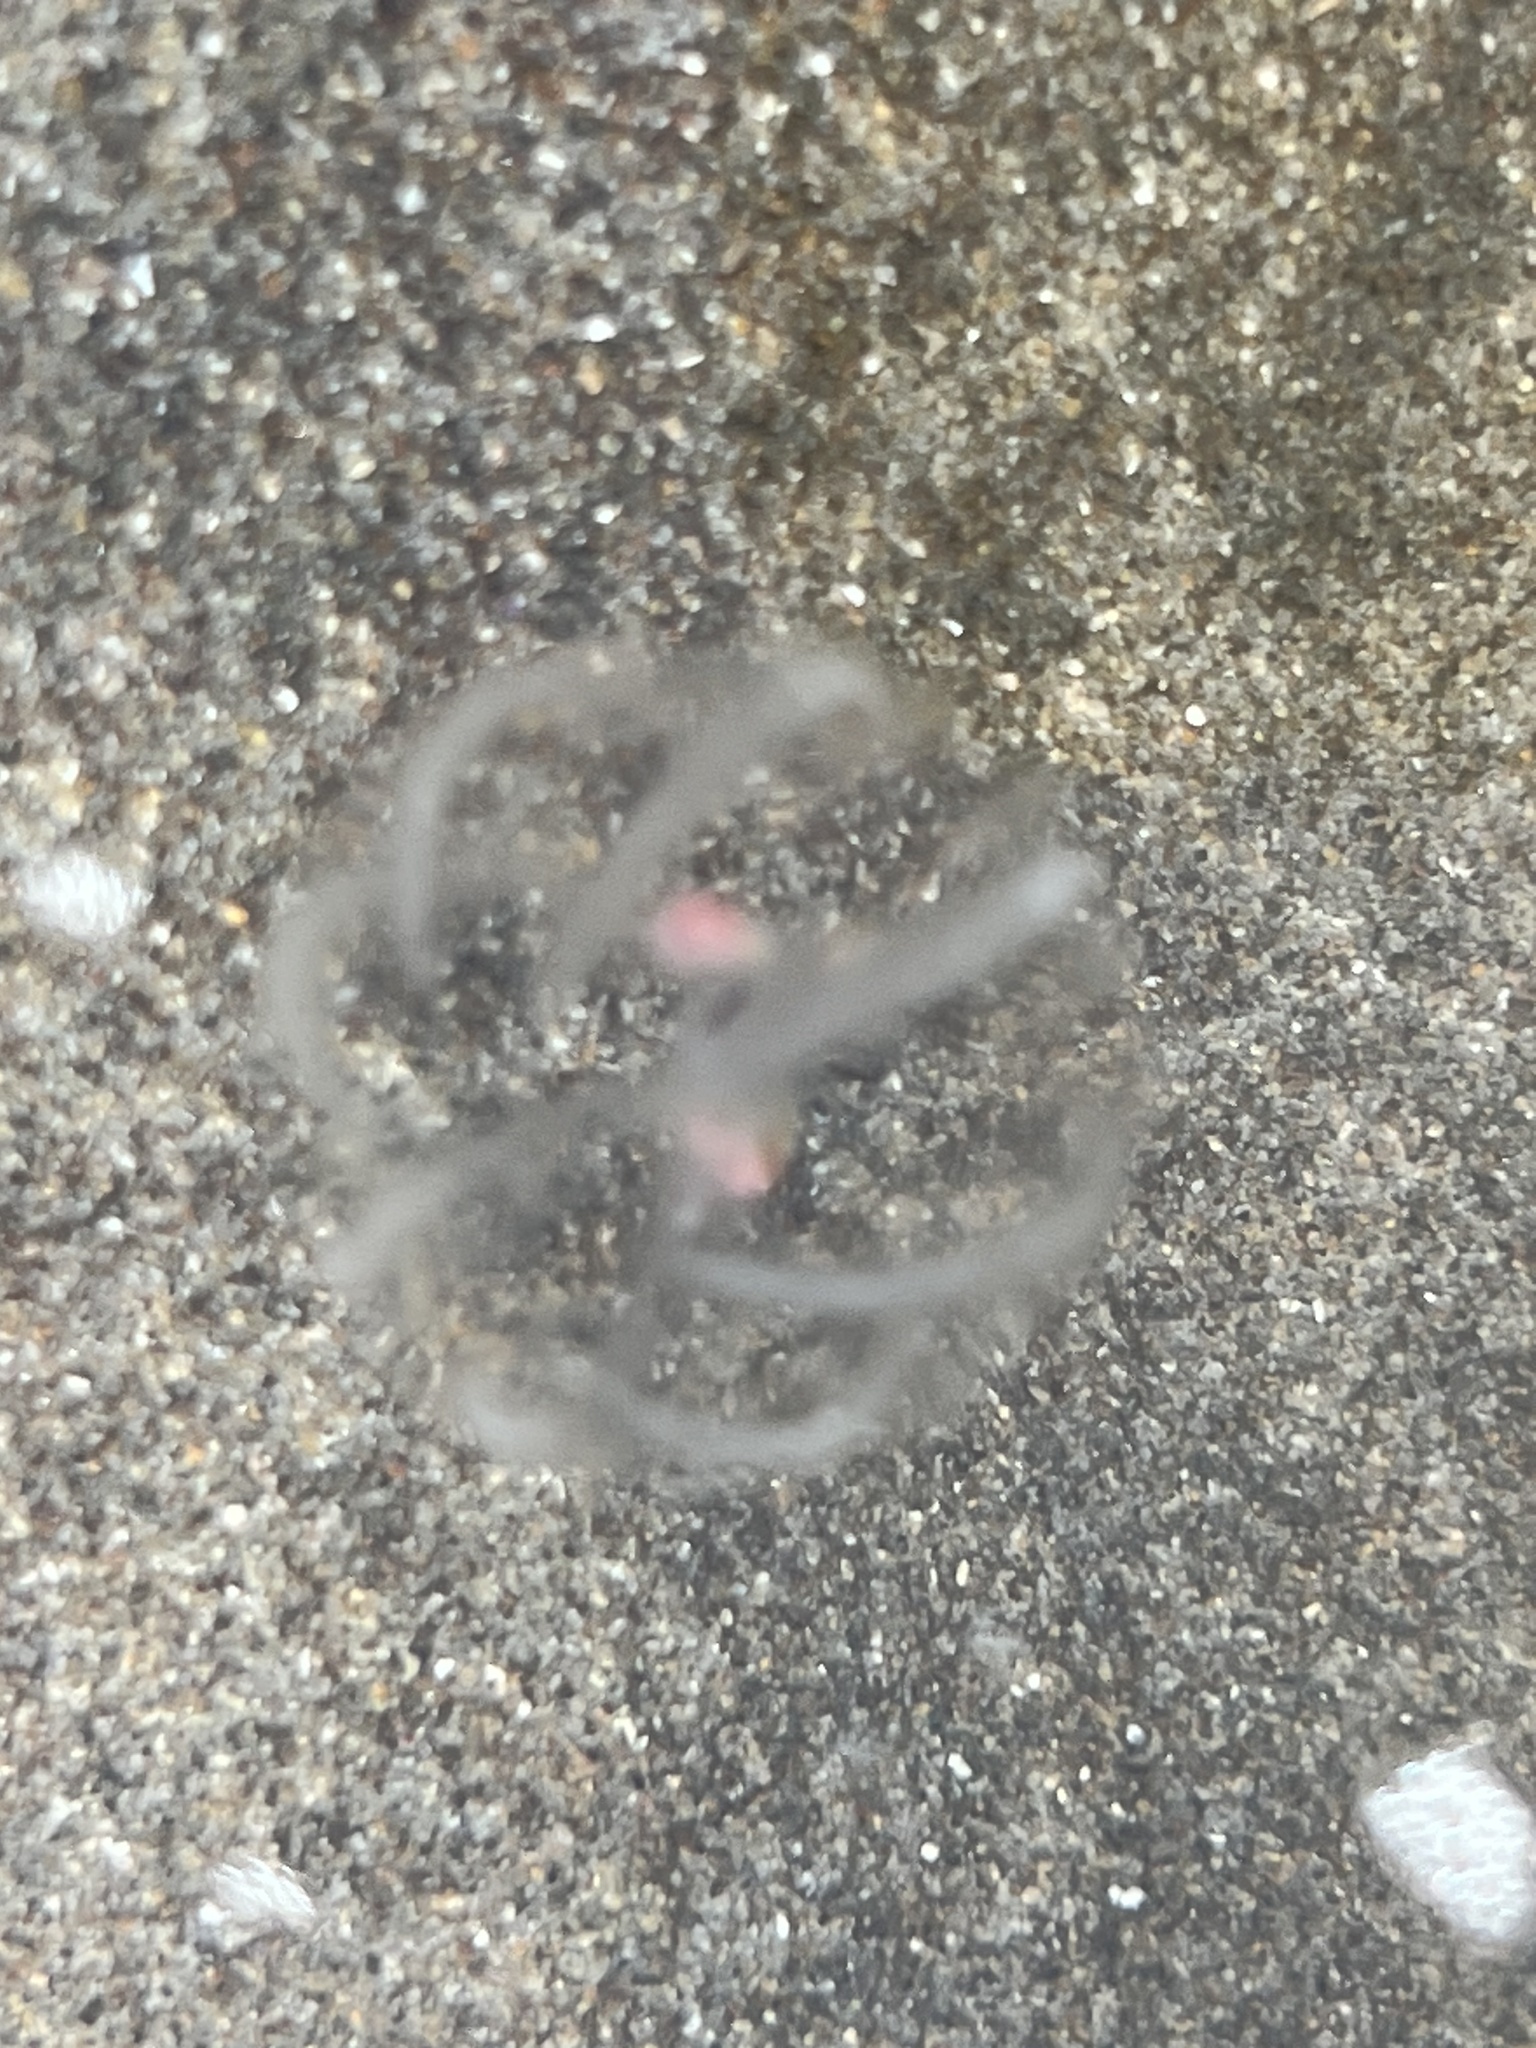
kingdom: Animalia
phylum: Ctenophora
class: Tentaculata
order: Cydippida
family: Pleurobrachiidae
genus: Pleurobrachia
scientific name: Pleurobrachia bachei
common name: Pacific sea gooseberry
